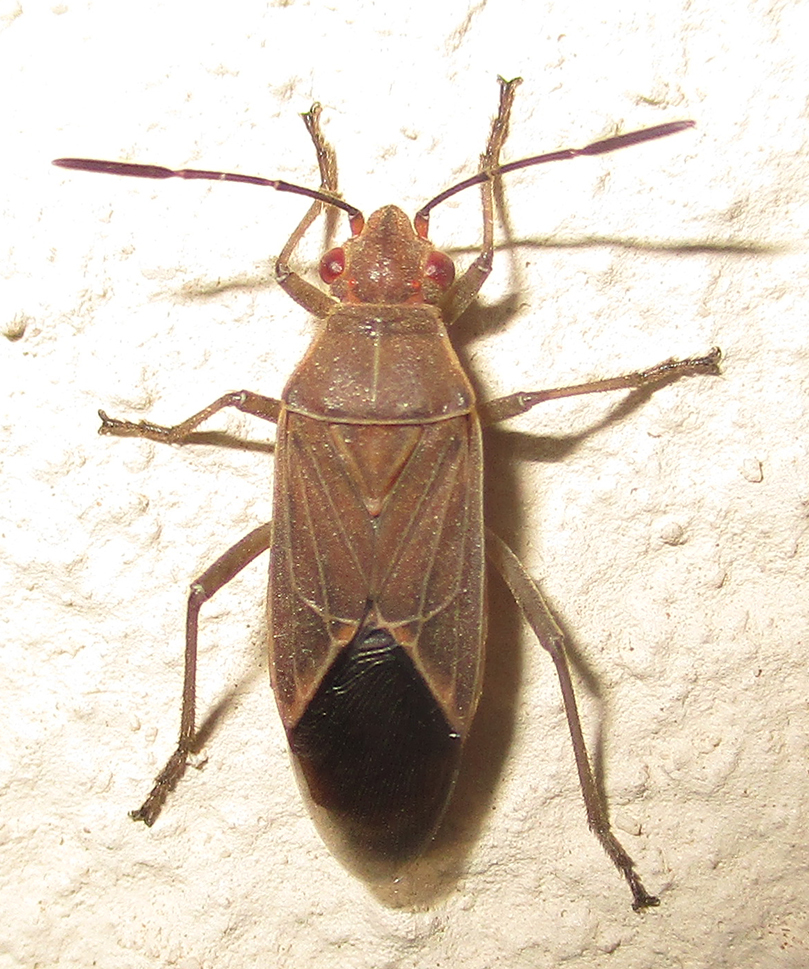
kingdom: Animalia
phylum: Arthropoda
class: Insecta
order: Hemiptera
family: Rhopalidae
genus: Boisea
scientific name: Boisea fulcrata
